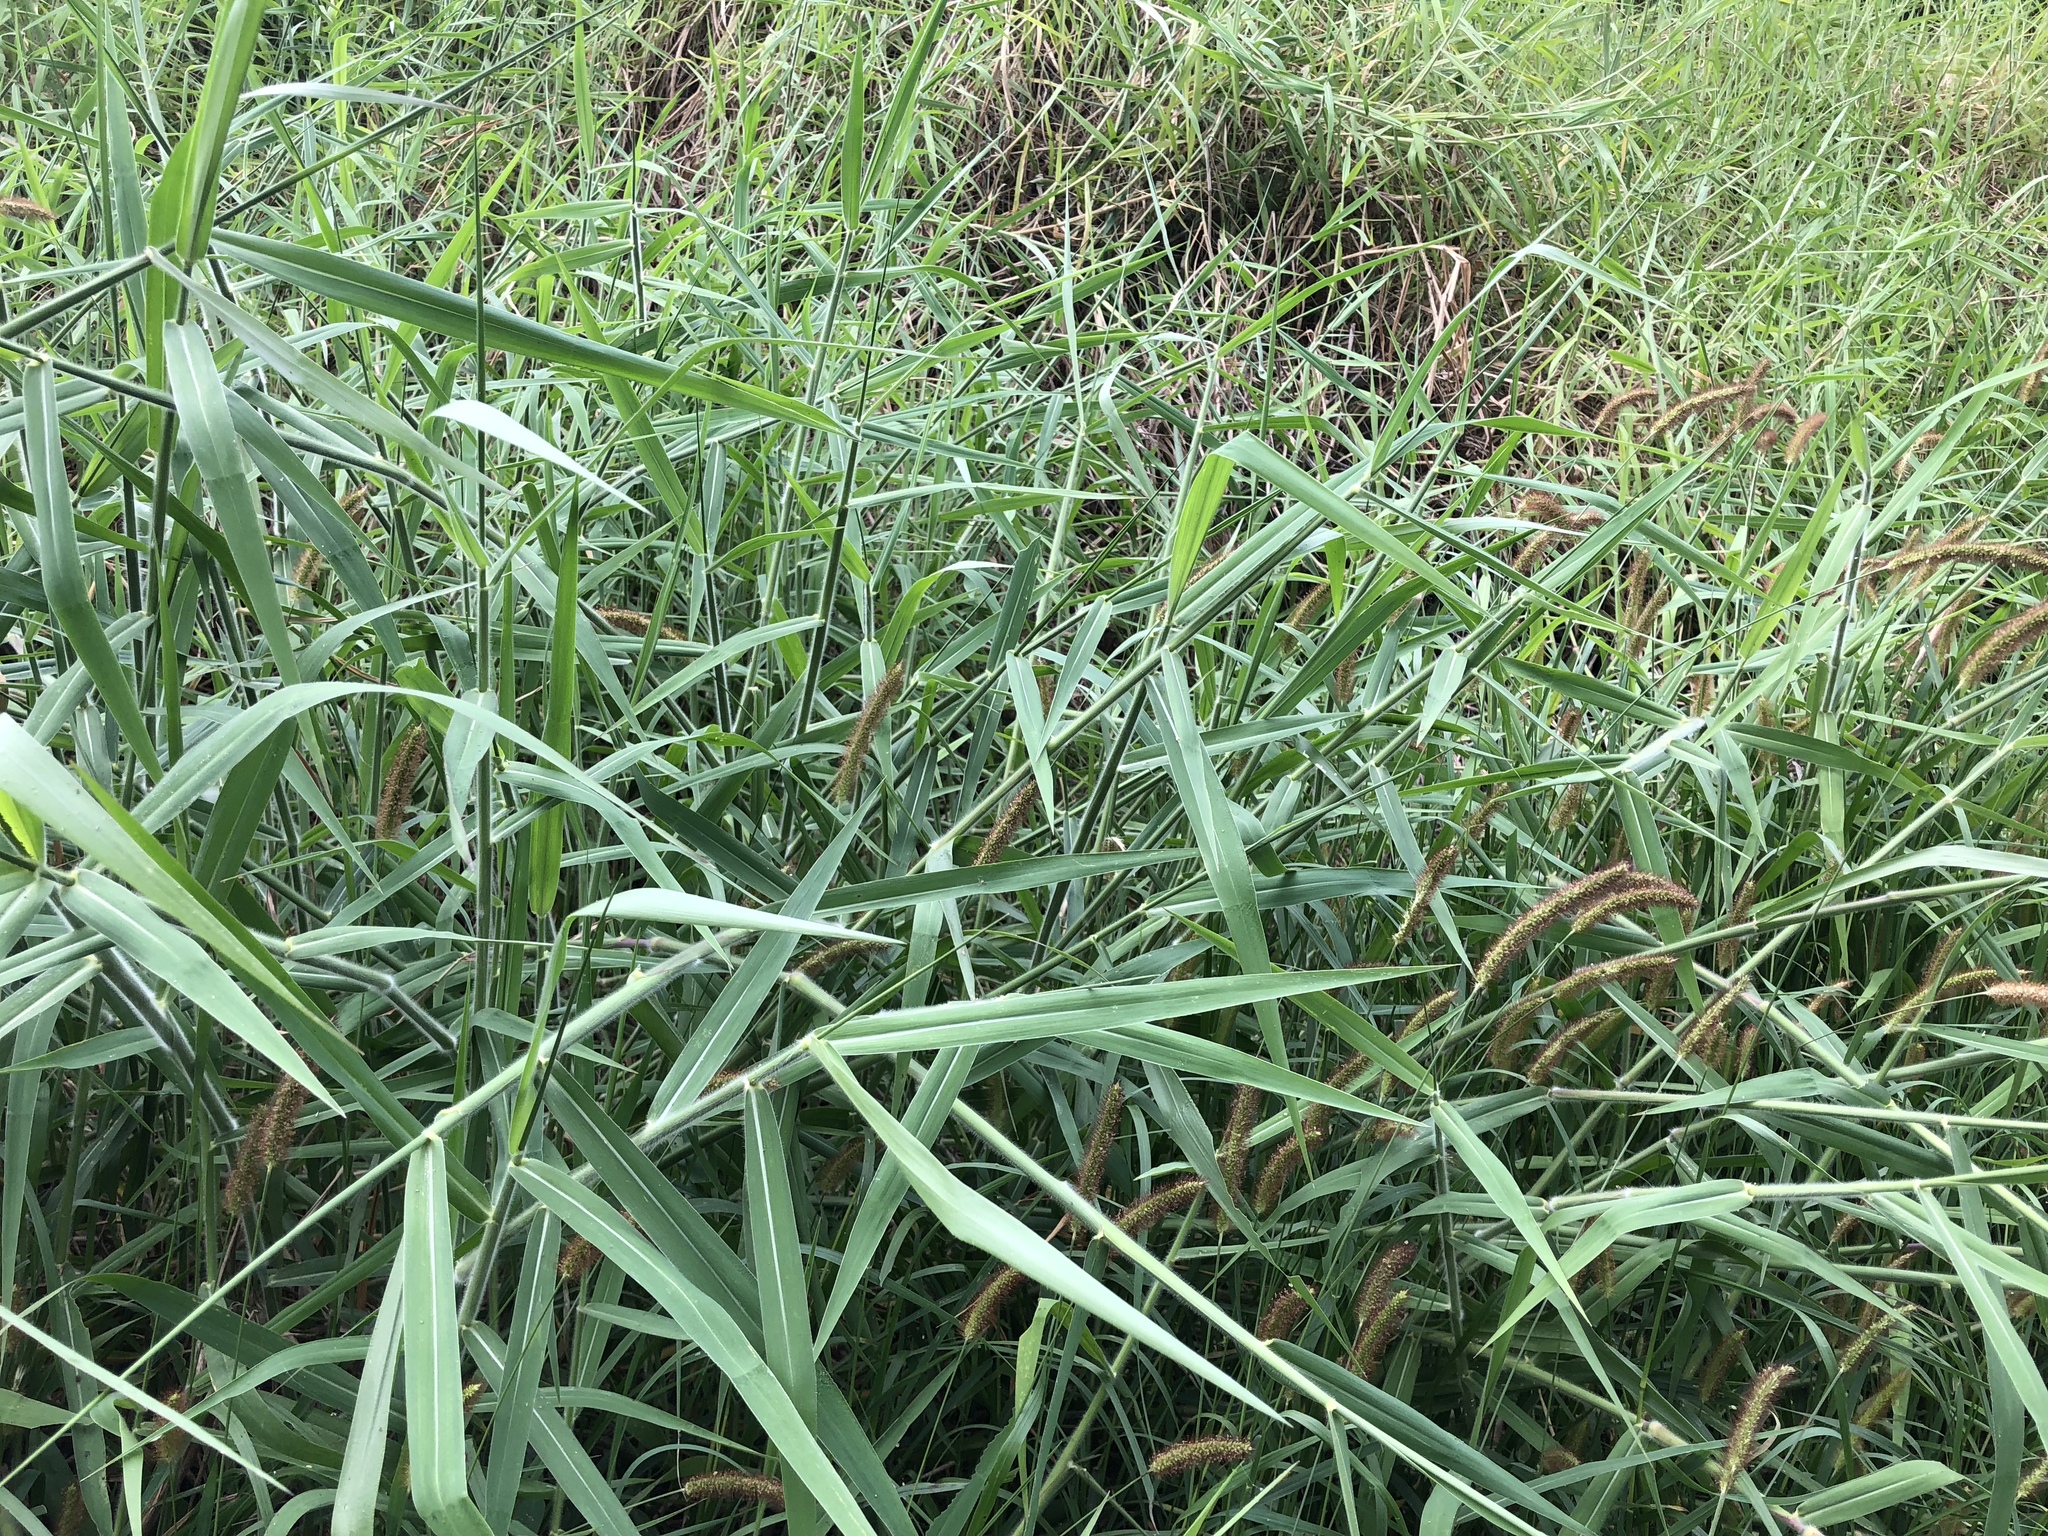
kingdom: Plantae
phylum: Tracheophyta
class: Liliopsida
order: Poales
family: Poaceae
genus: Urochloa
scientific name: Urochloa mutica
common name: Para grass
